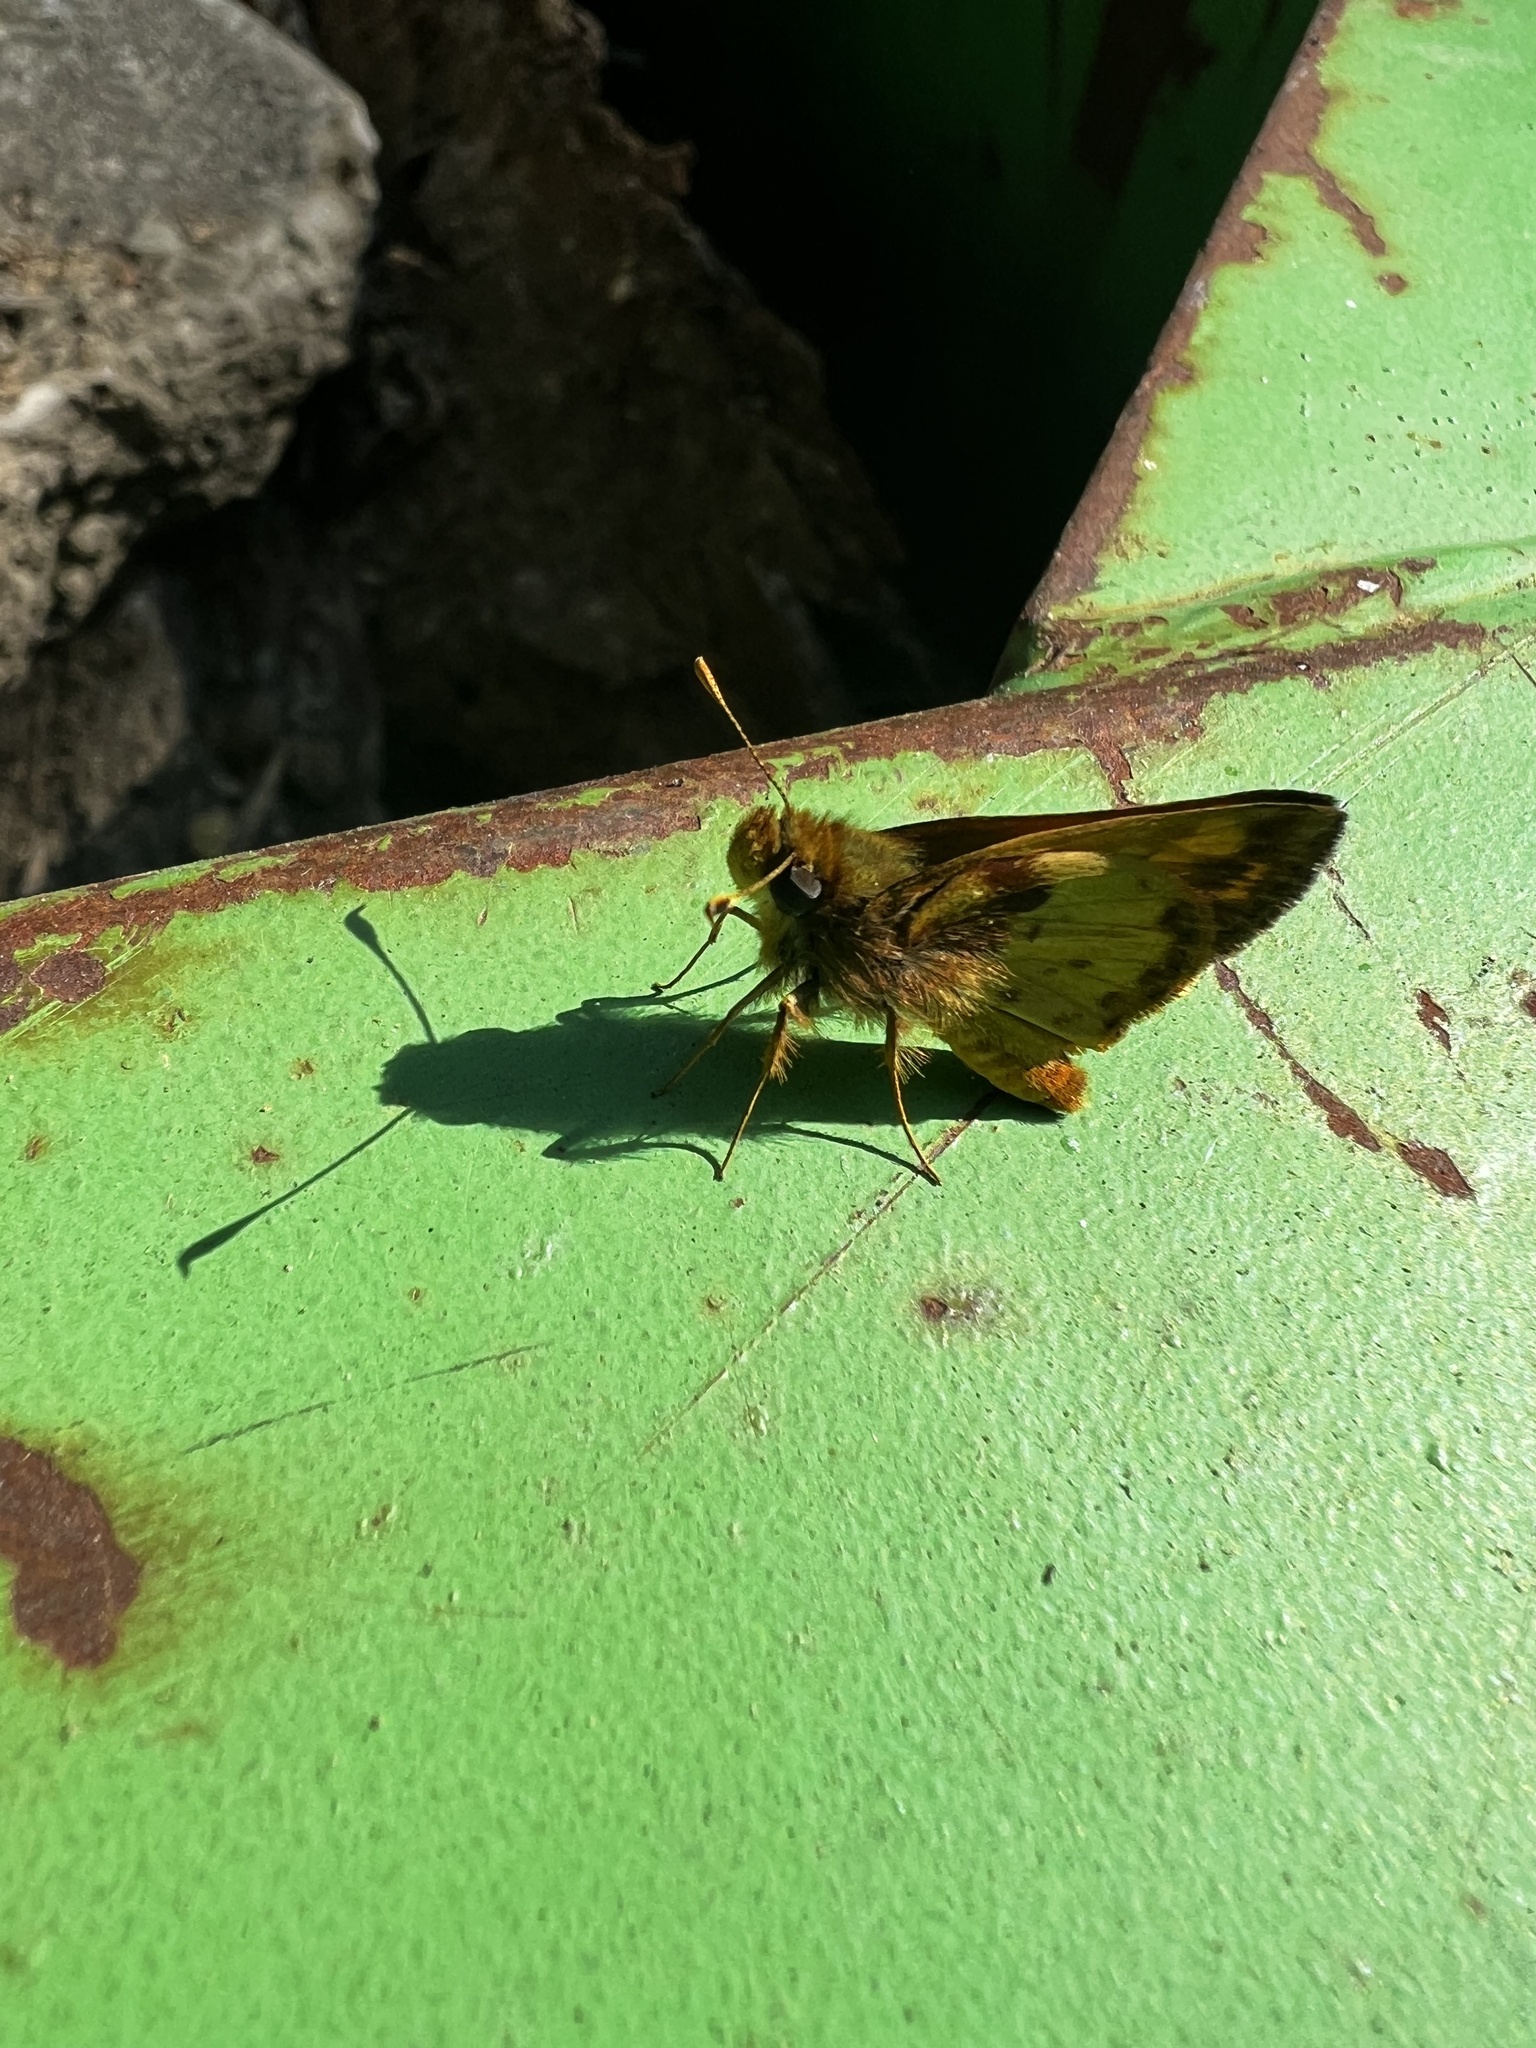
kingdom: Animalia
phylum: Arthropoda
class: Insecta
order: Lepidoptera
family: Hesperiidae
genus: Lon
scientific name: Lon zabulon
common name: Zabulon skipper
